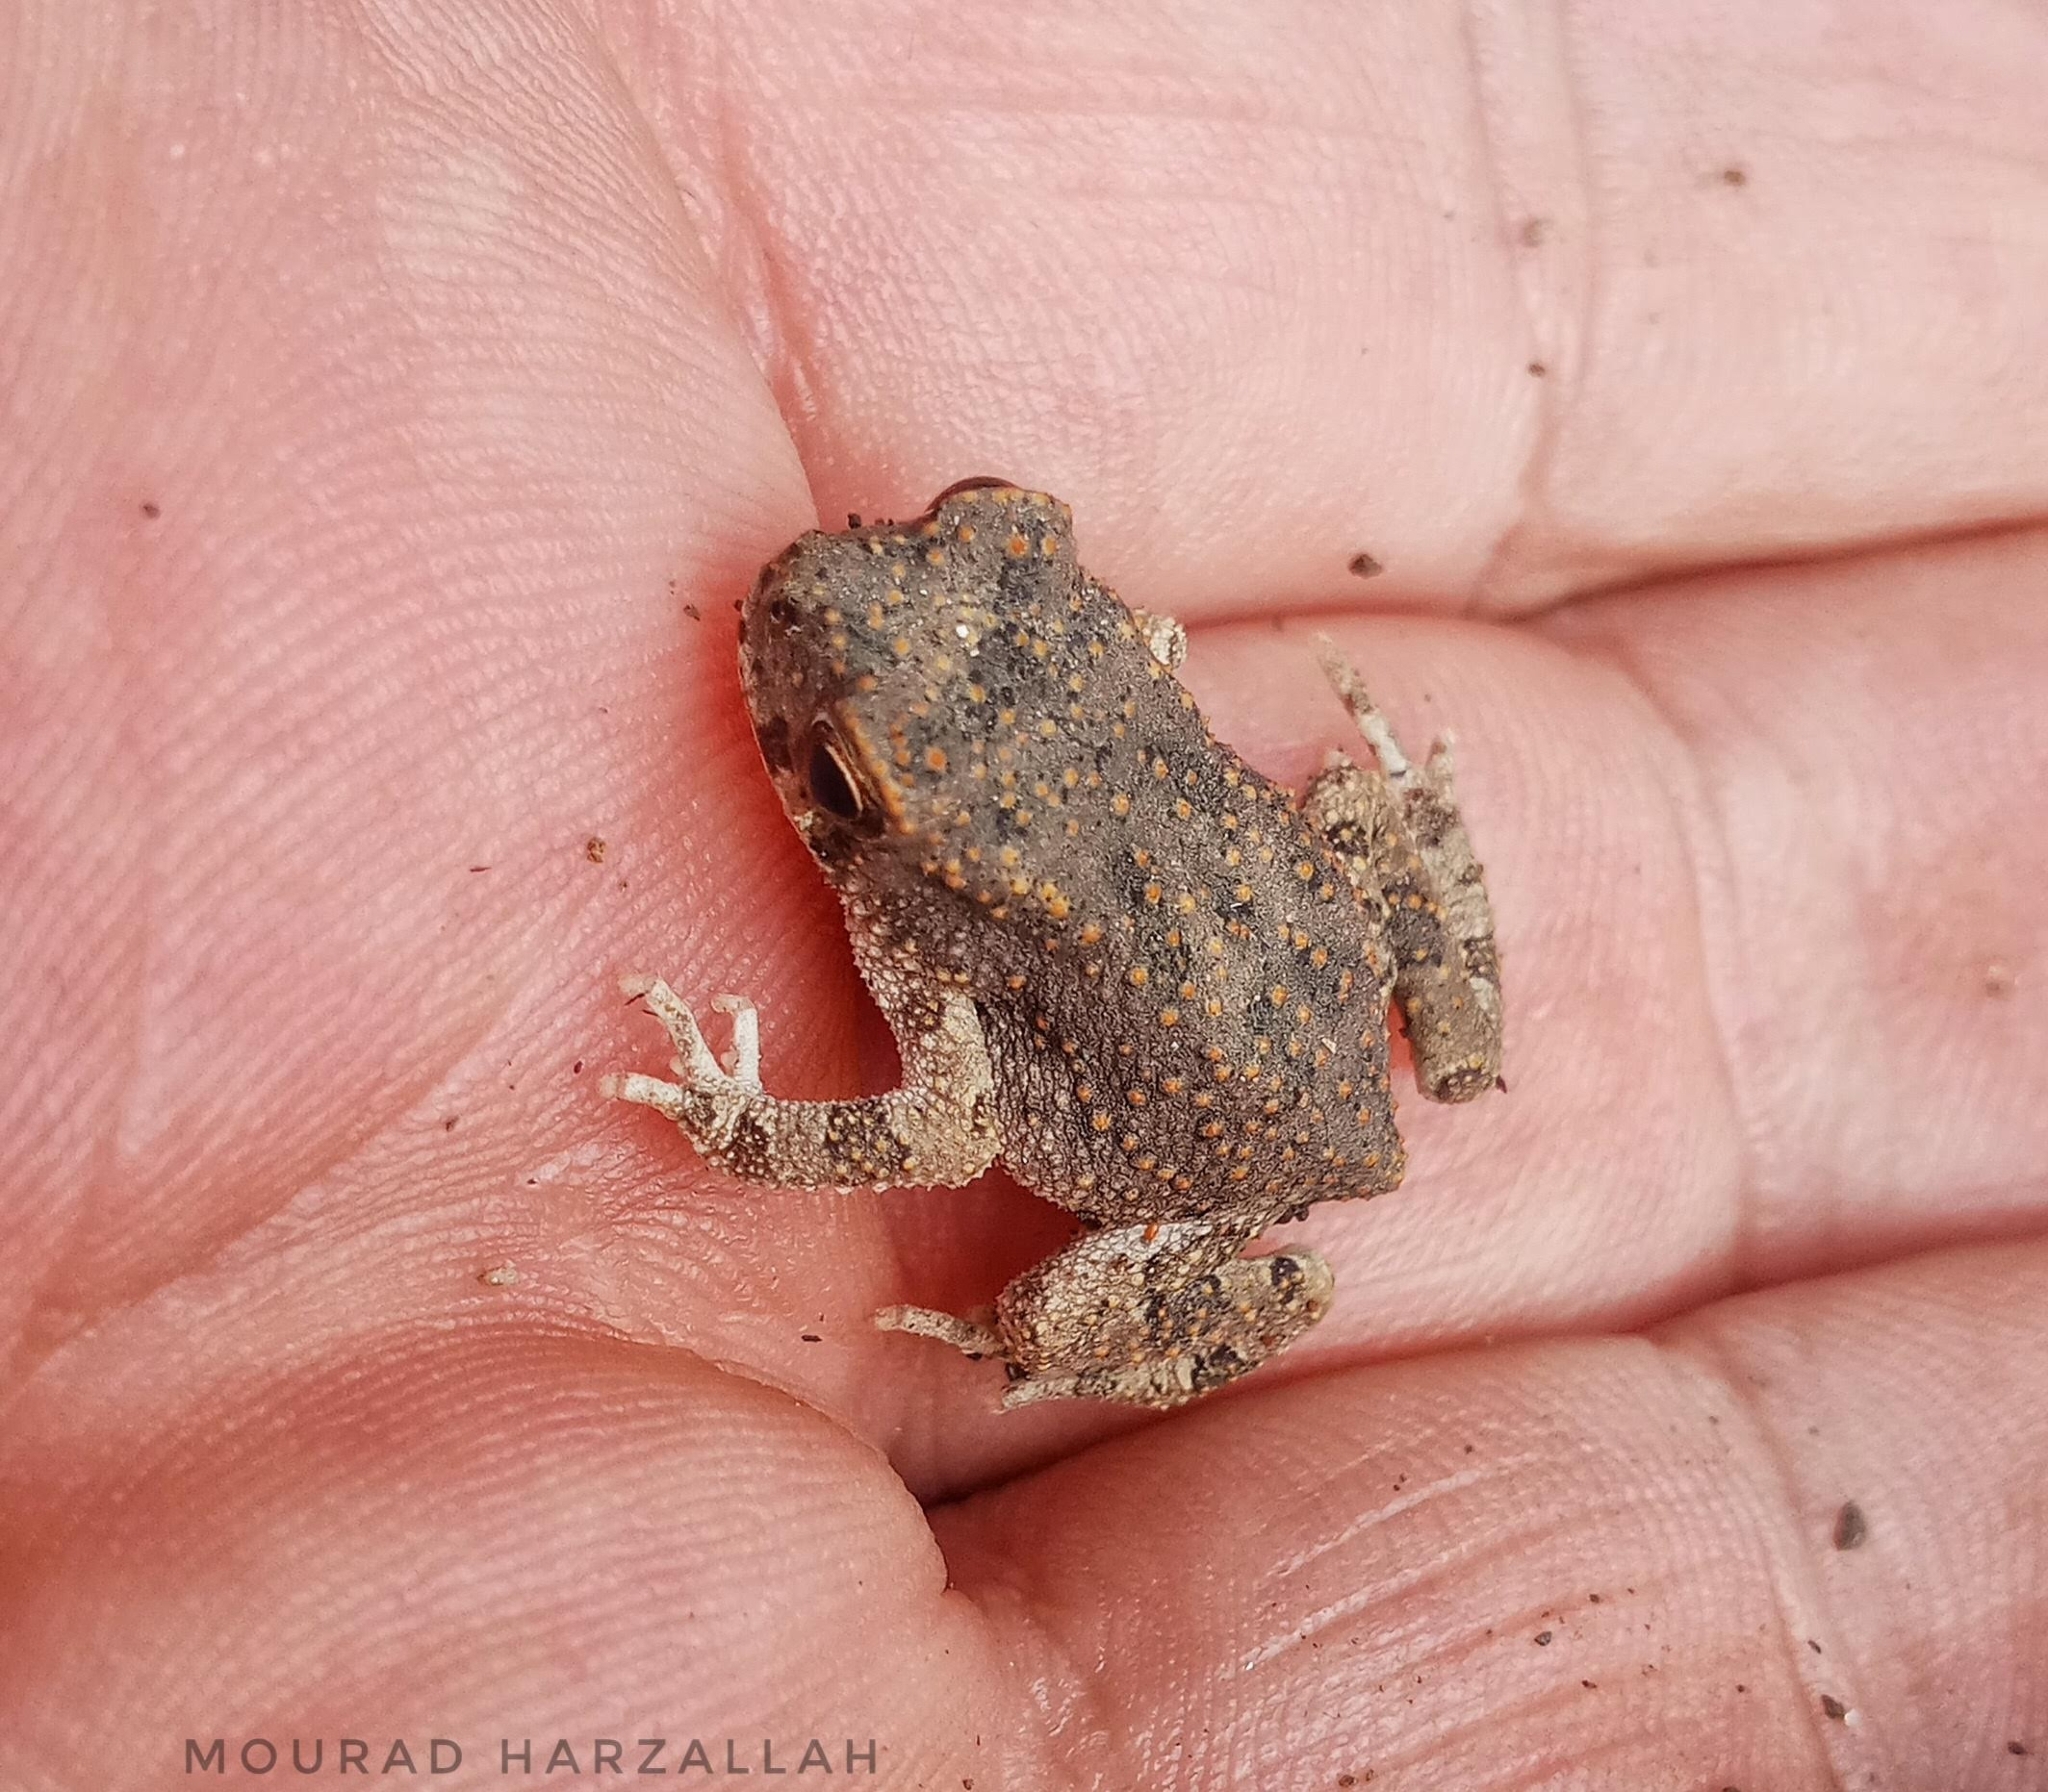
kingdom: Animalia
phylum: Chordata
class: Amphibia
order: Anura
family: Bufonidae
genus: Sclerophrys
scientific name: Sclerophrys mauritanica
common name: Berber toad
